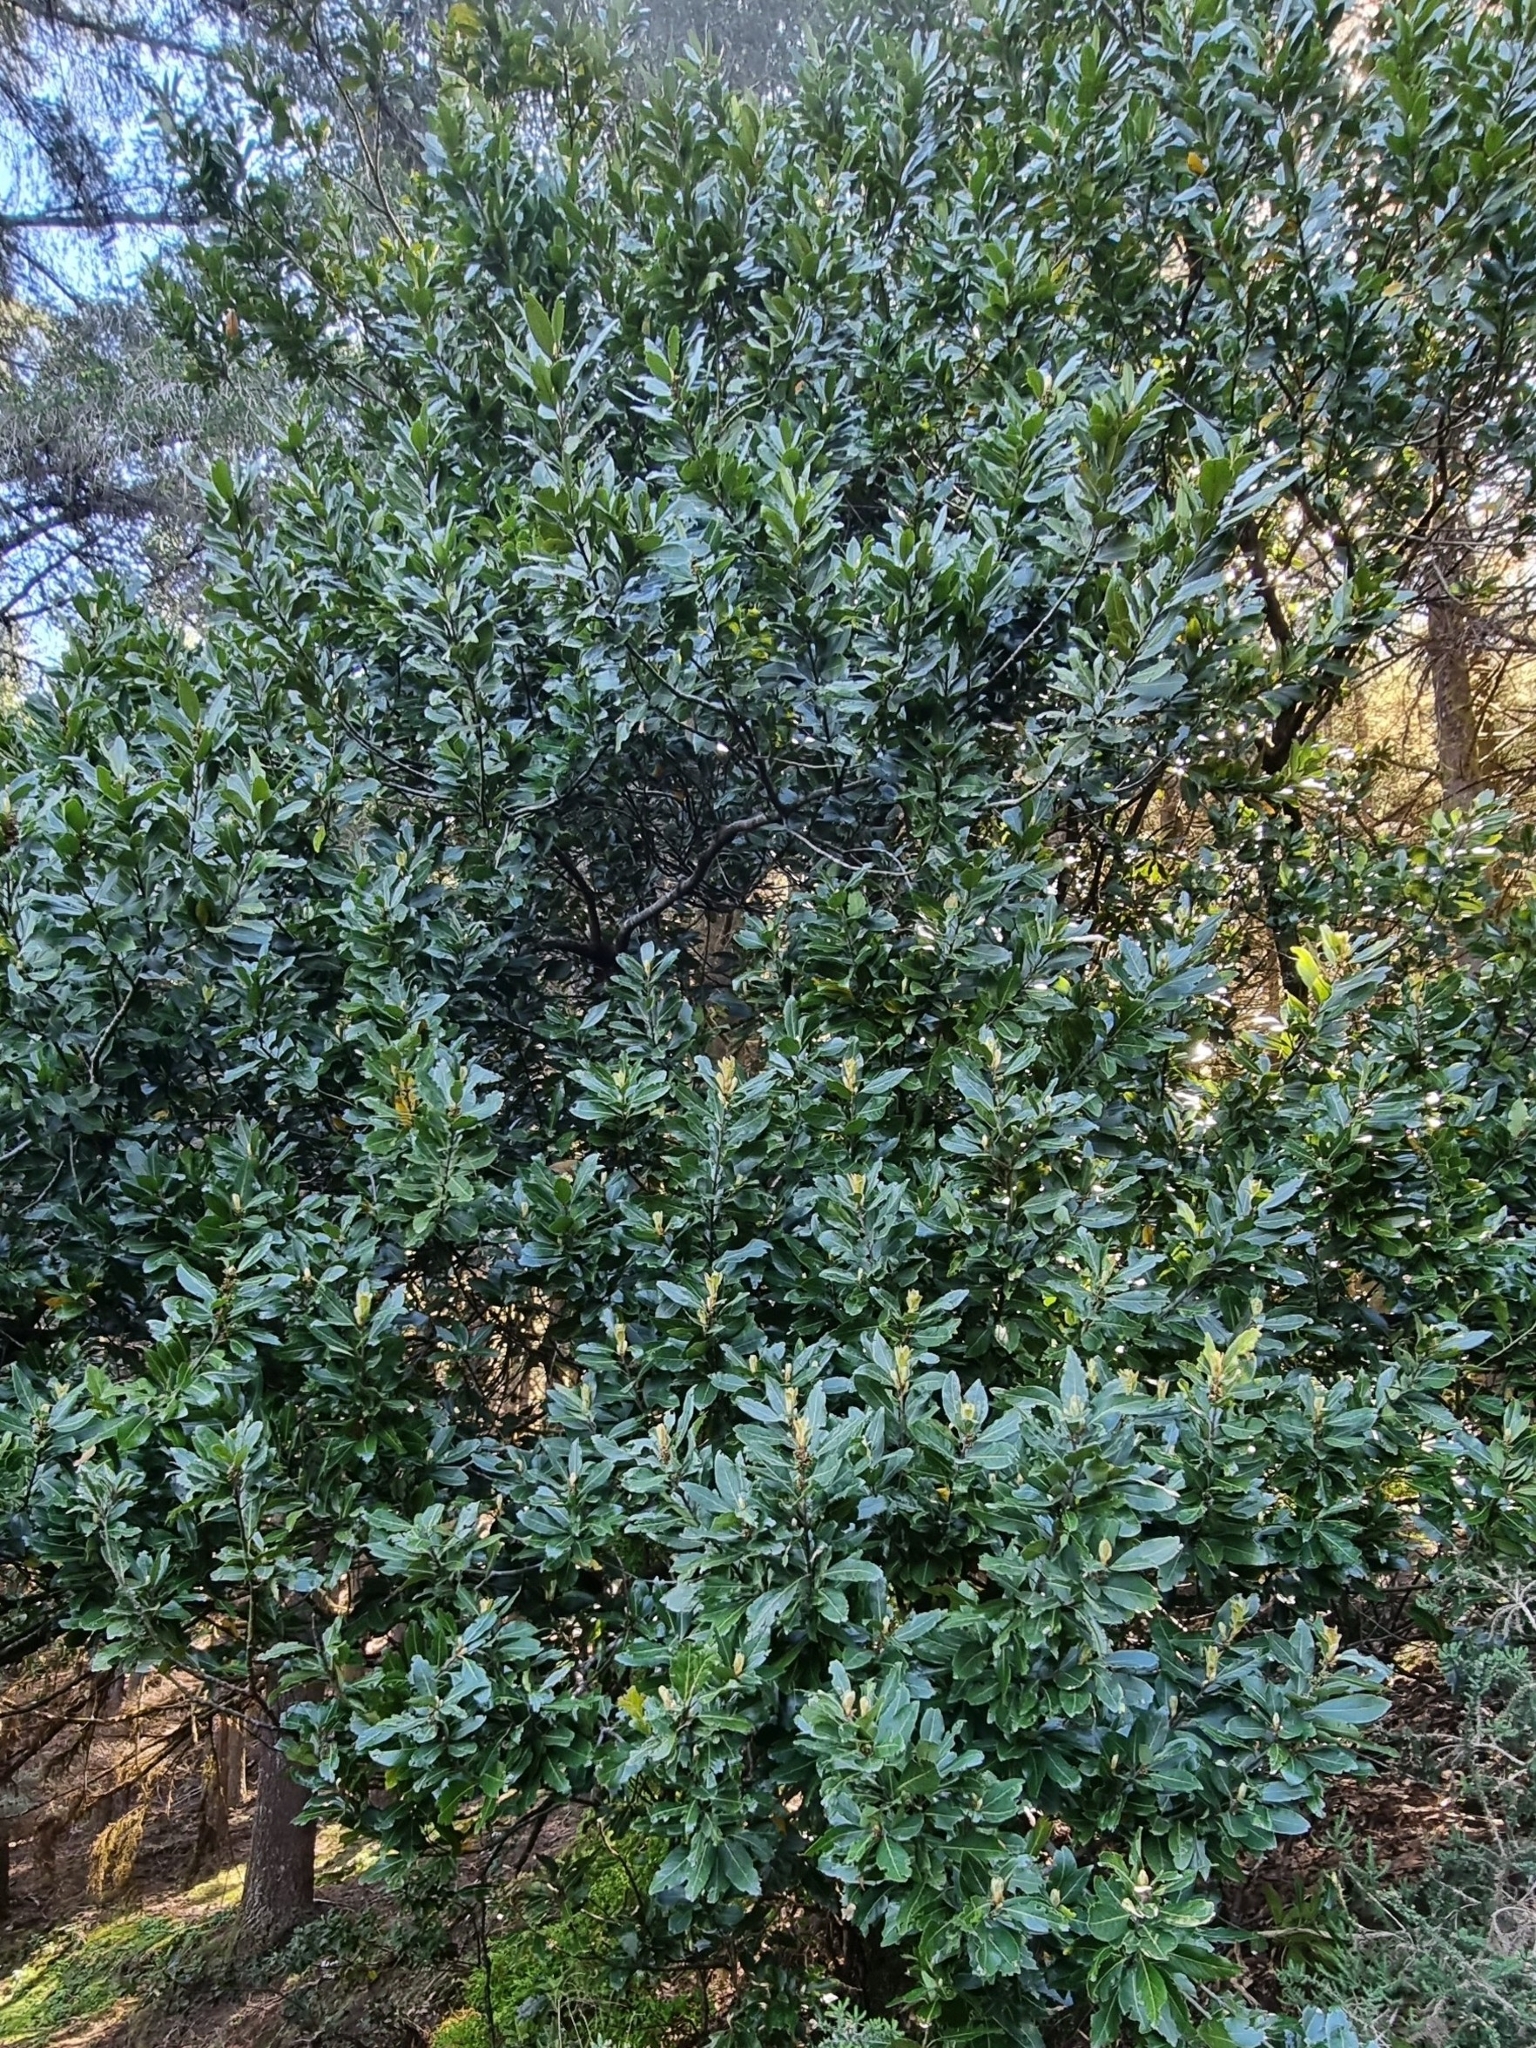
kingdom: Plantae
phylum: Tracheophyta
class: Magnoliopsida
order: Laurales
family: Lauraceae
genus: Laurus
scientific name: Laurus novocanariensis
